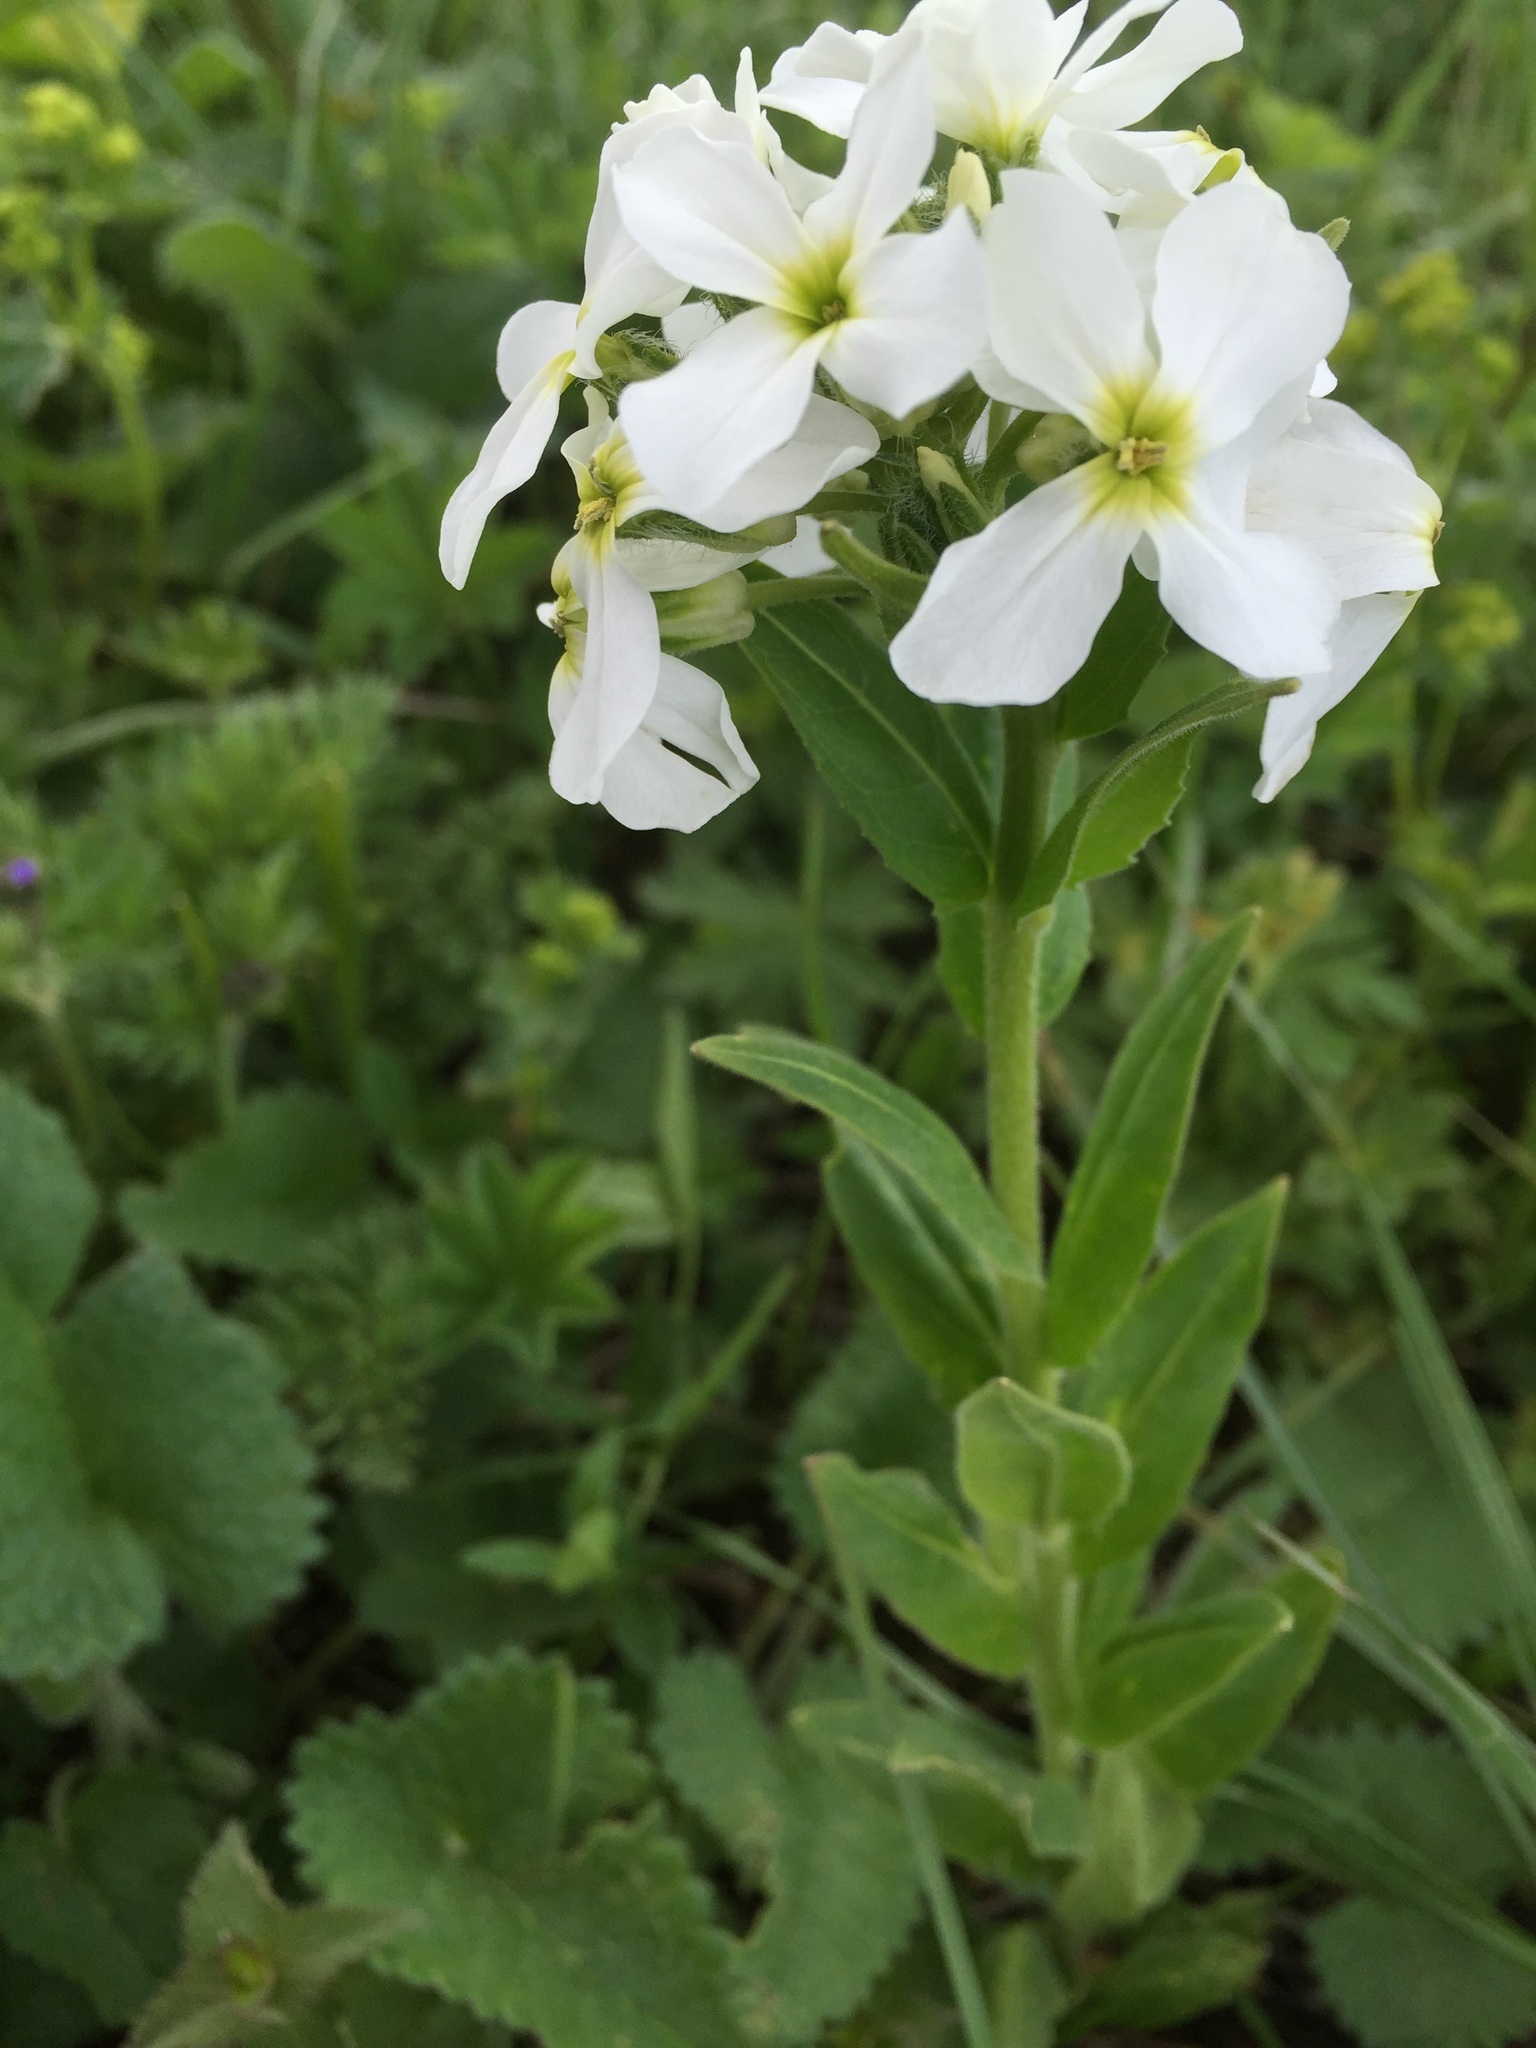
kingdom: Plantae
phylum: Tracheophyta
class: Magnoliopsida
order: Brassicales
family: Brassicaceae
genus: Hesperis
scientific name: Hesperis matronalis
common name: Dame's-violet
